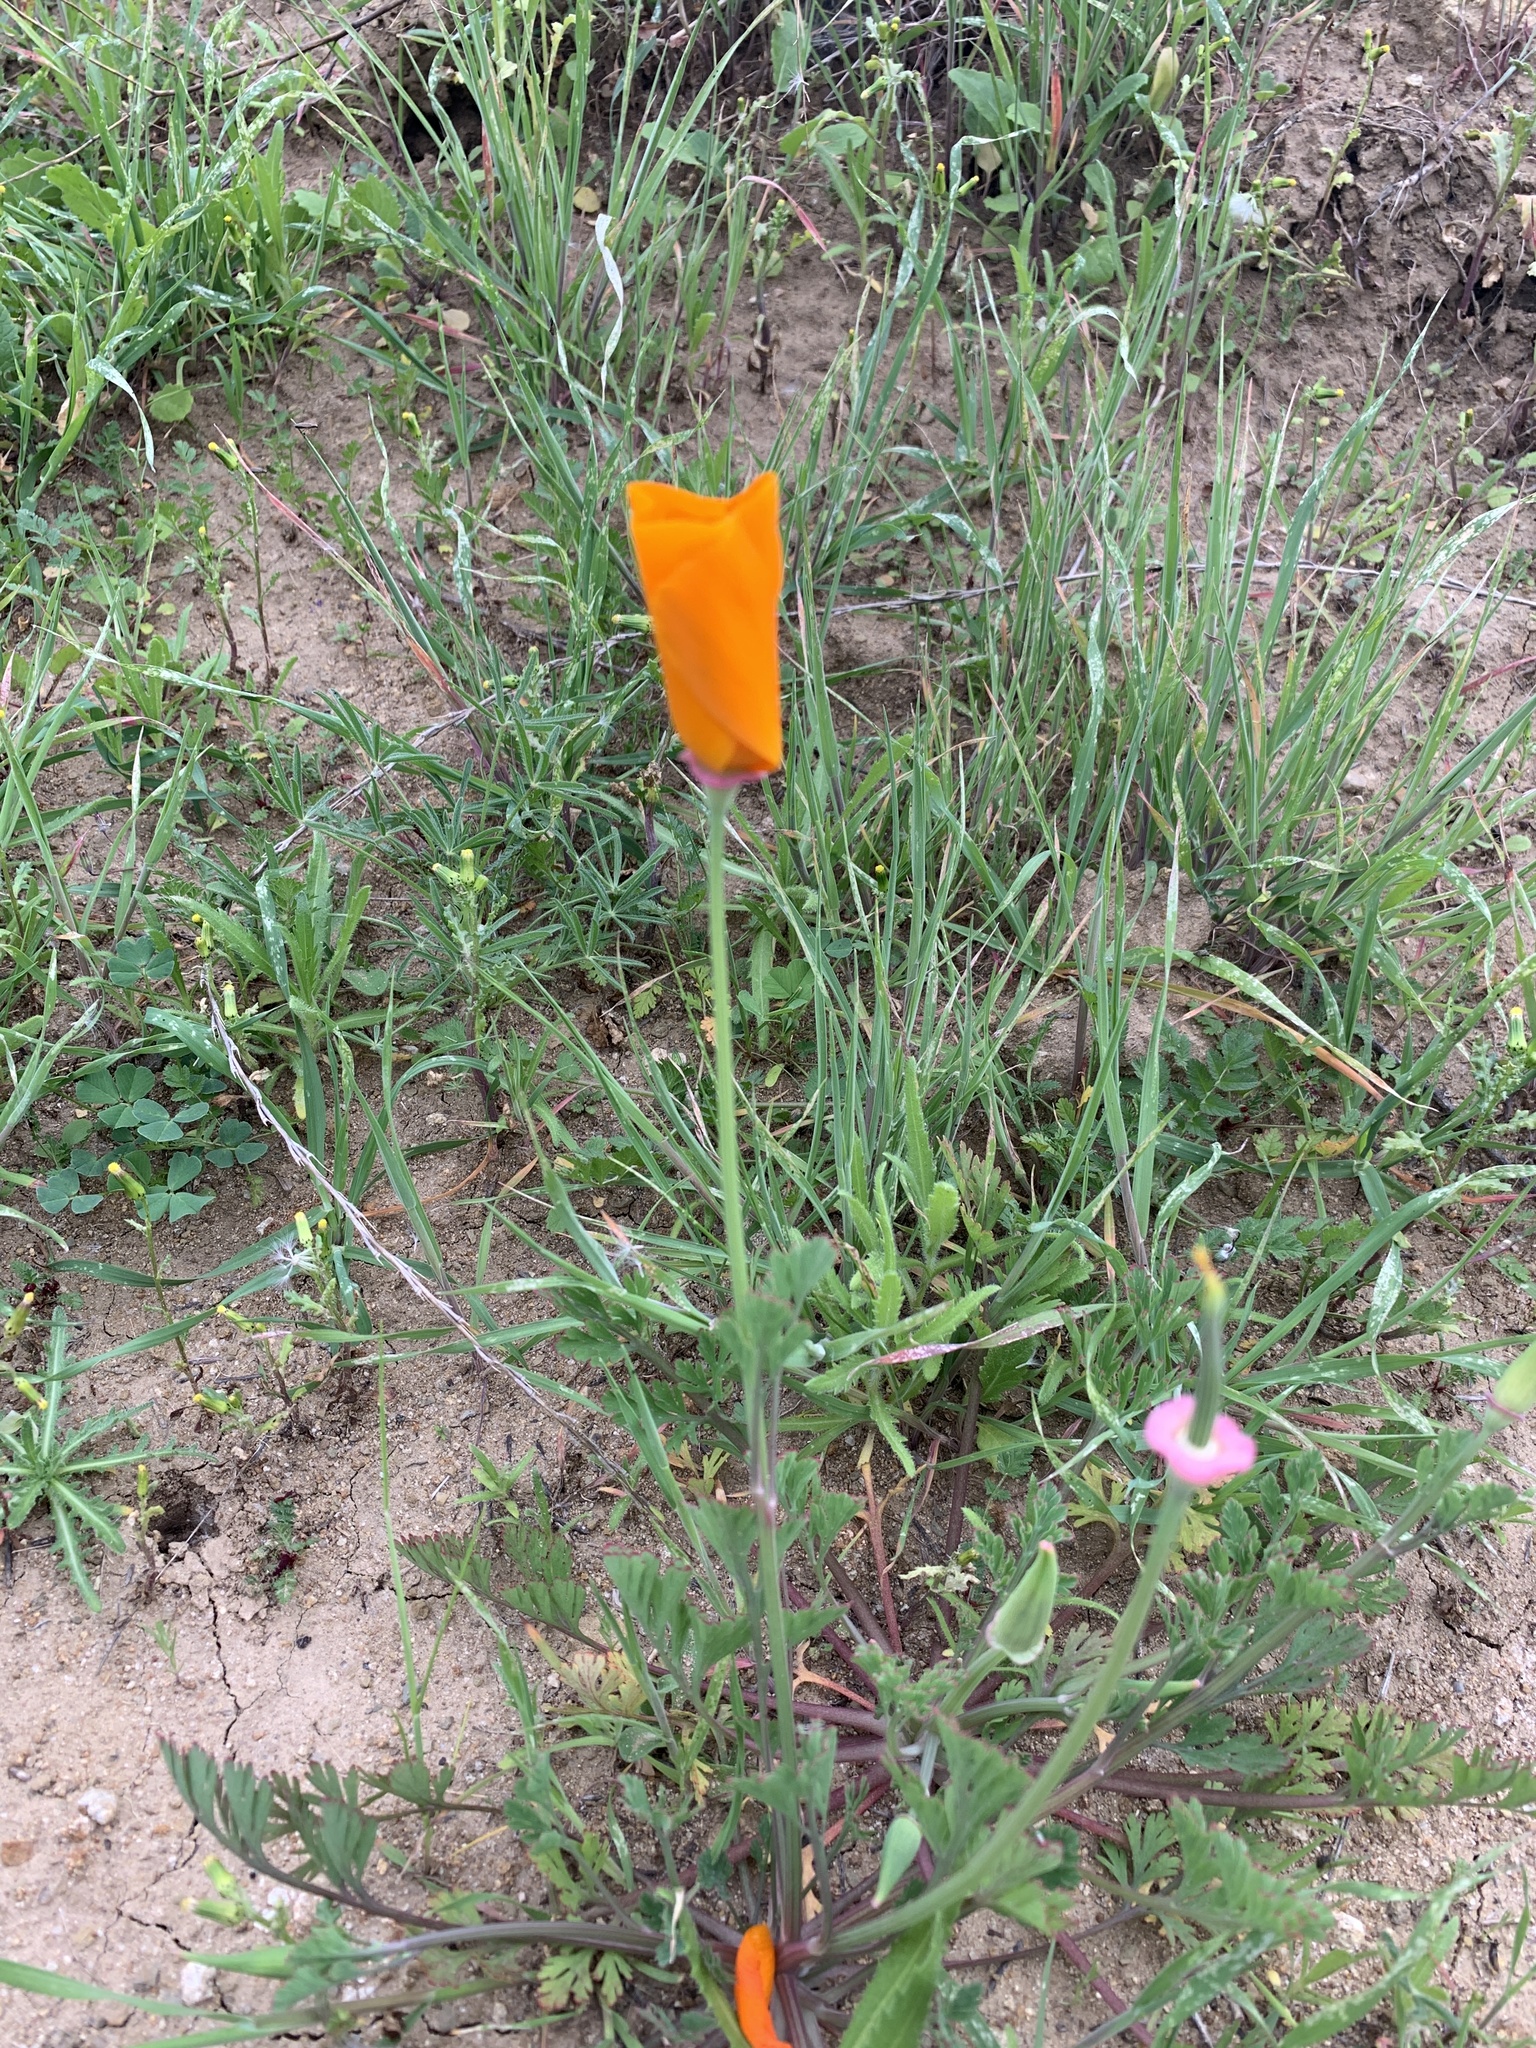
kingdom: Plantae
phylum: Tracheophyta
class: Magnoliopsida
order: Ranunculales
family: Papaveraceae
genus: Eschscholzia
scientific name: Eschscholzia californica
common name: California poppy
